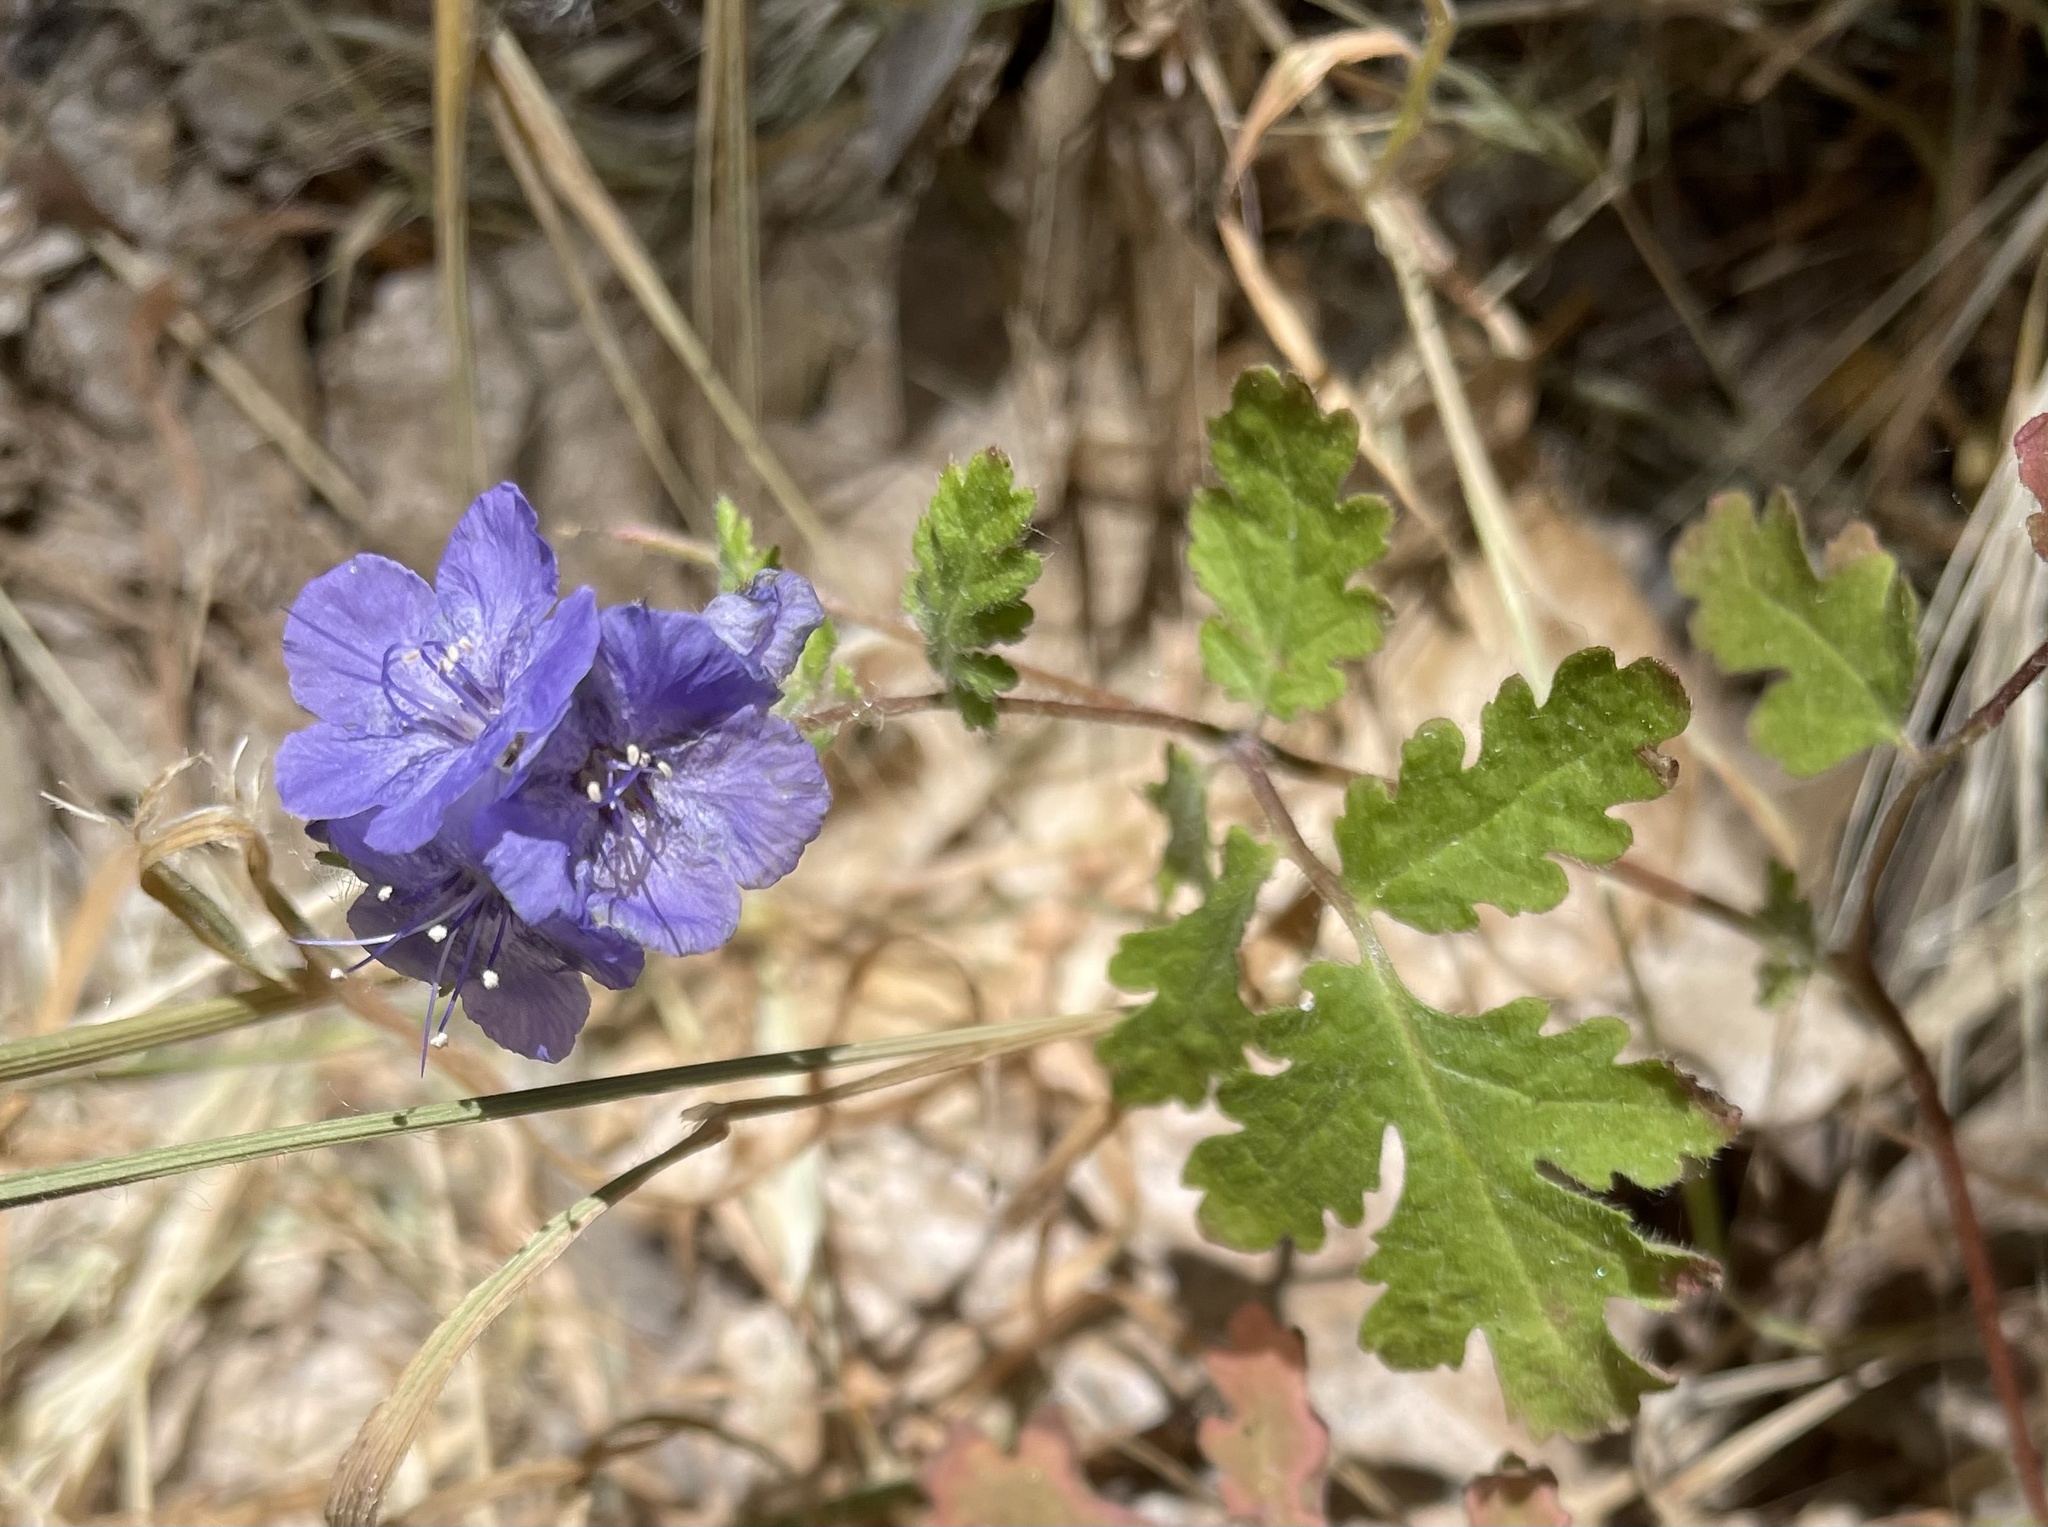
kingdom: Plantae
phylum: Tracheophyta
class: Magnoliopsida
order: Boraginales
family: Hydrophyllaceae
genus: Phacelia
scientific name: Phacelia distans
